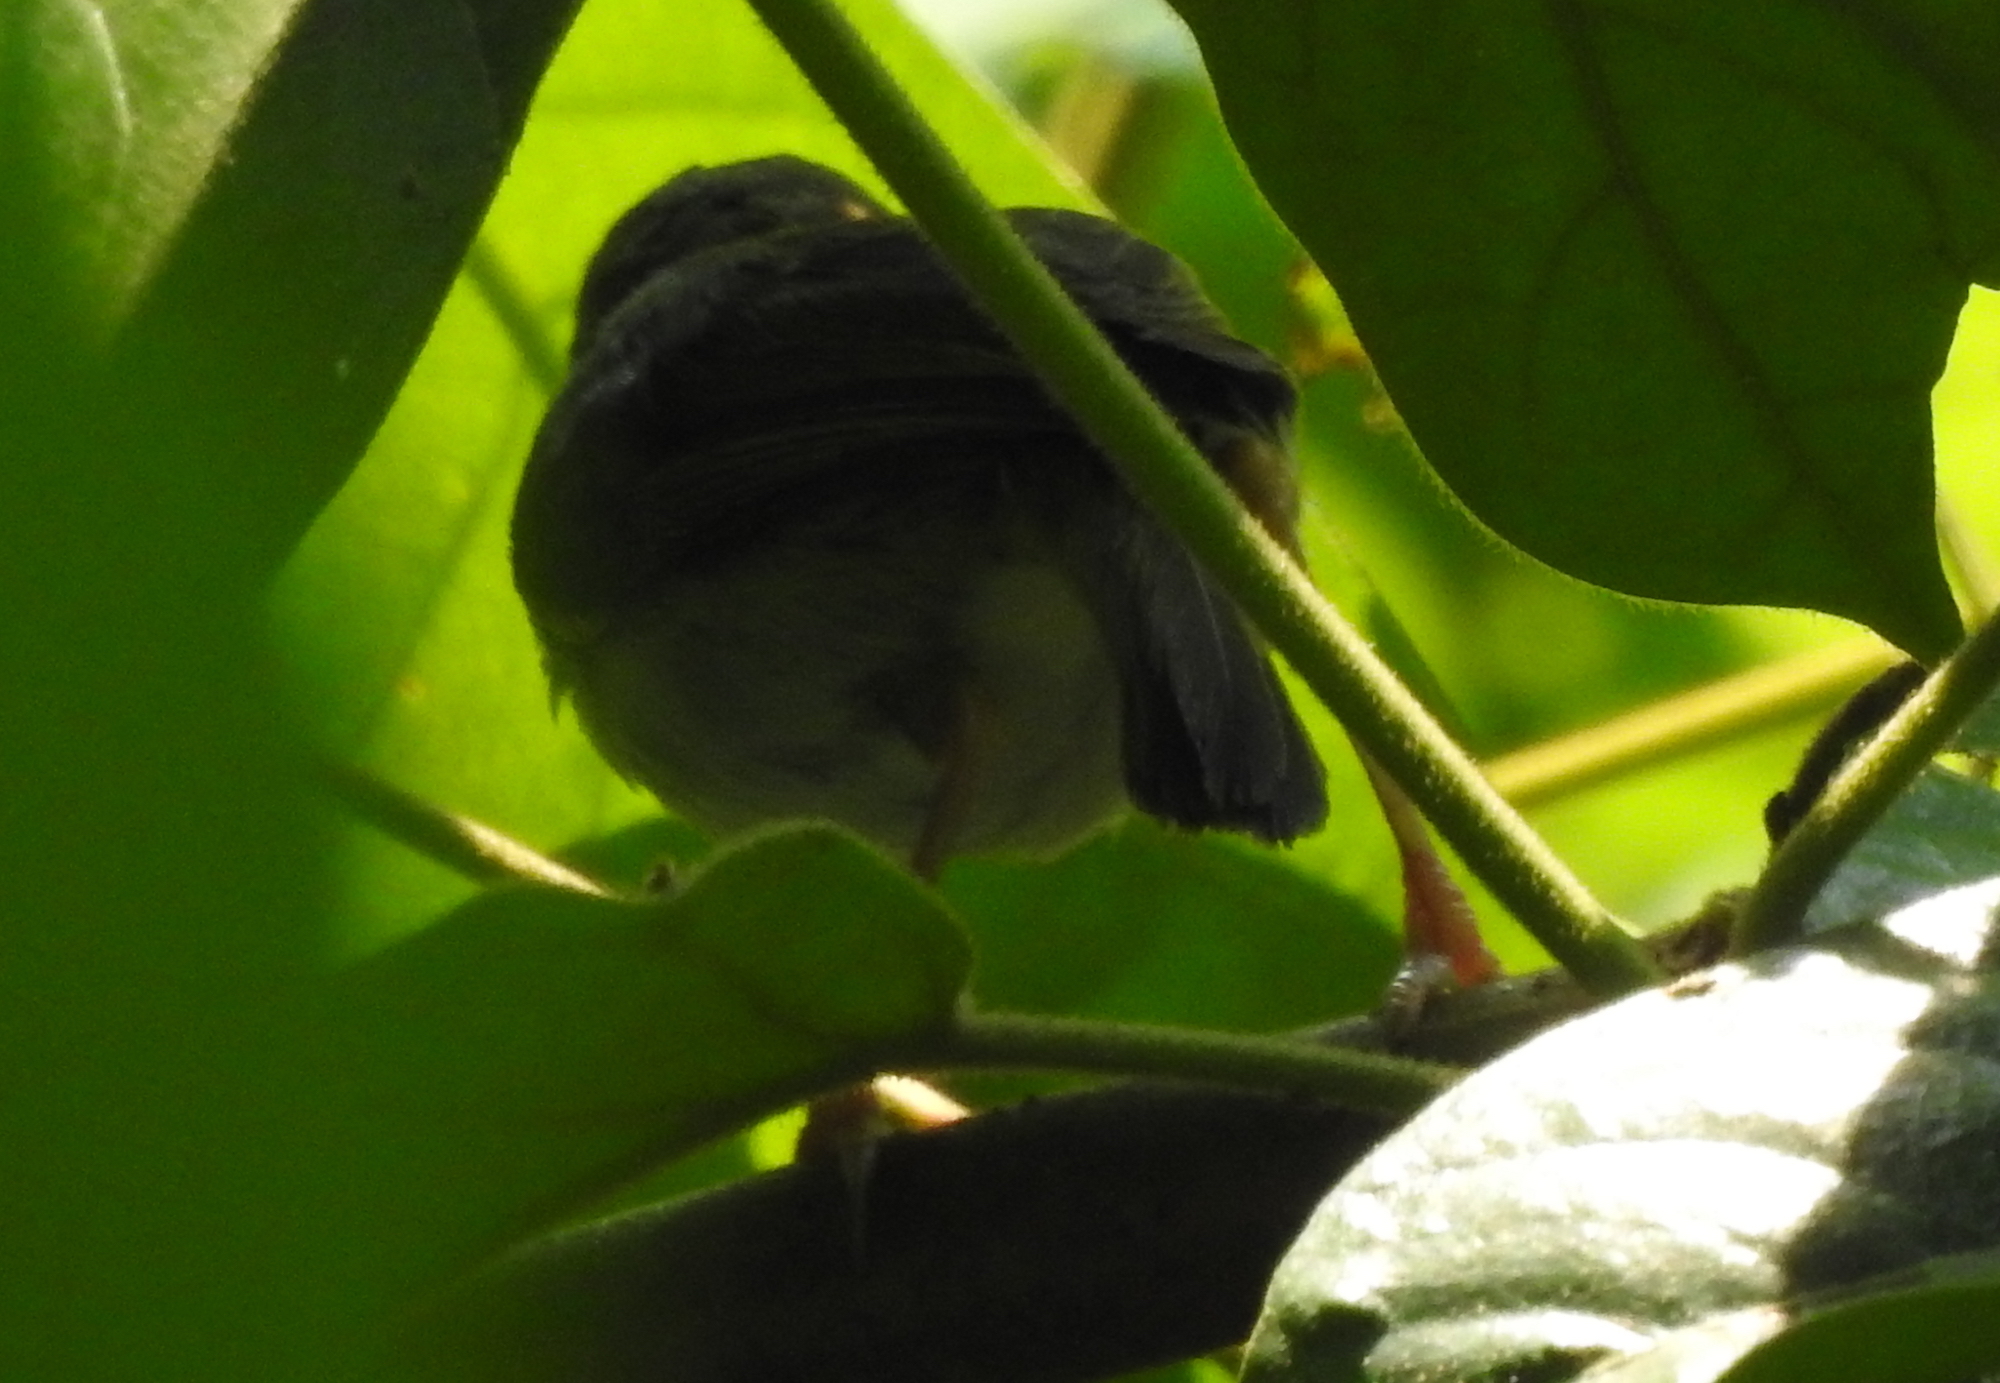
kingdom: Animalia
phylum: Chordata
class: Aves
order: Passeriformes
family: Cisticolidae
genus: Orthotomus
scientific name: Orthotomus sutorius
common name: Common tailorbird
